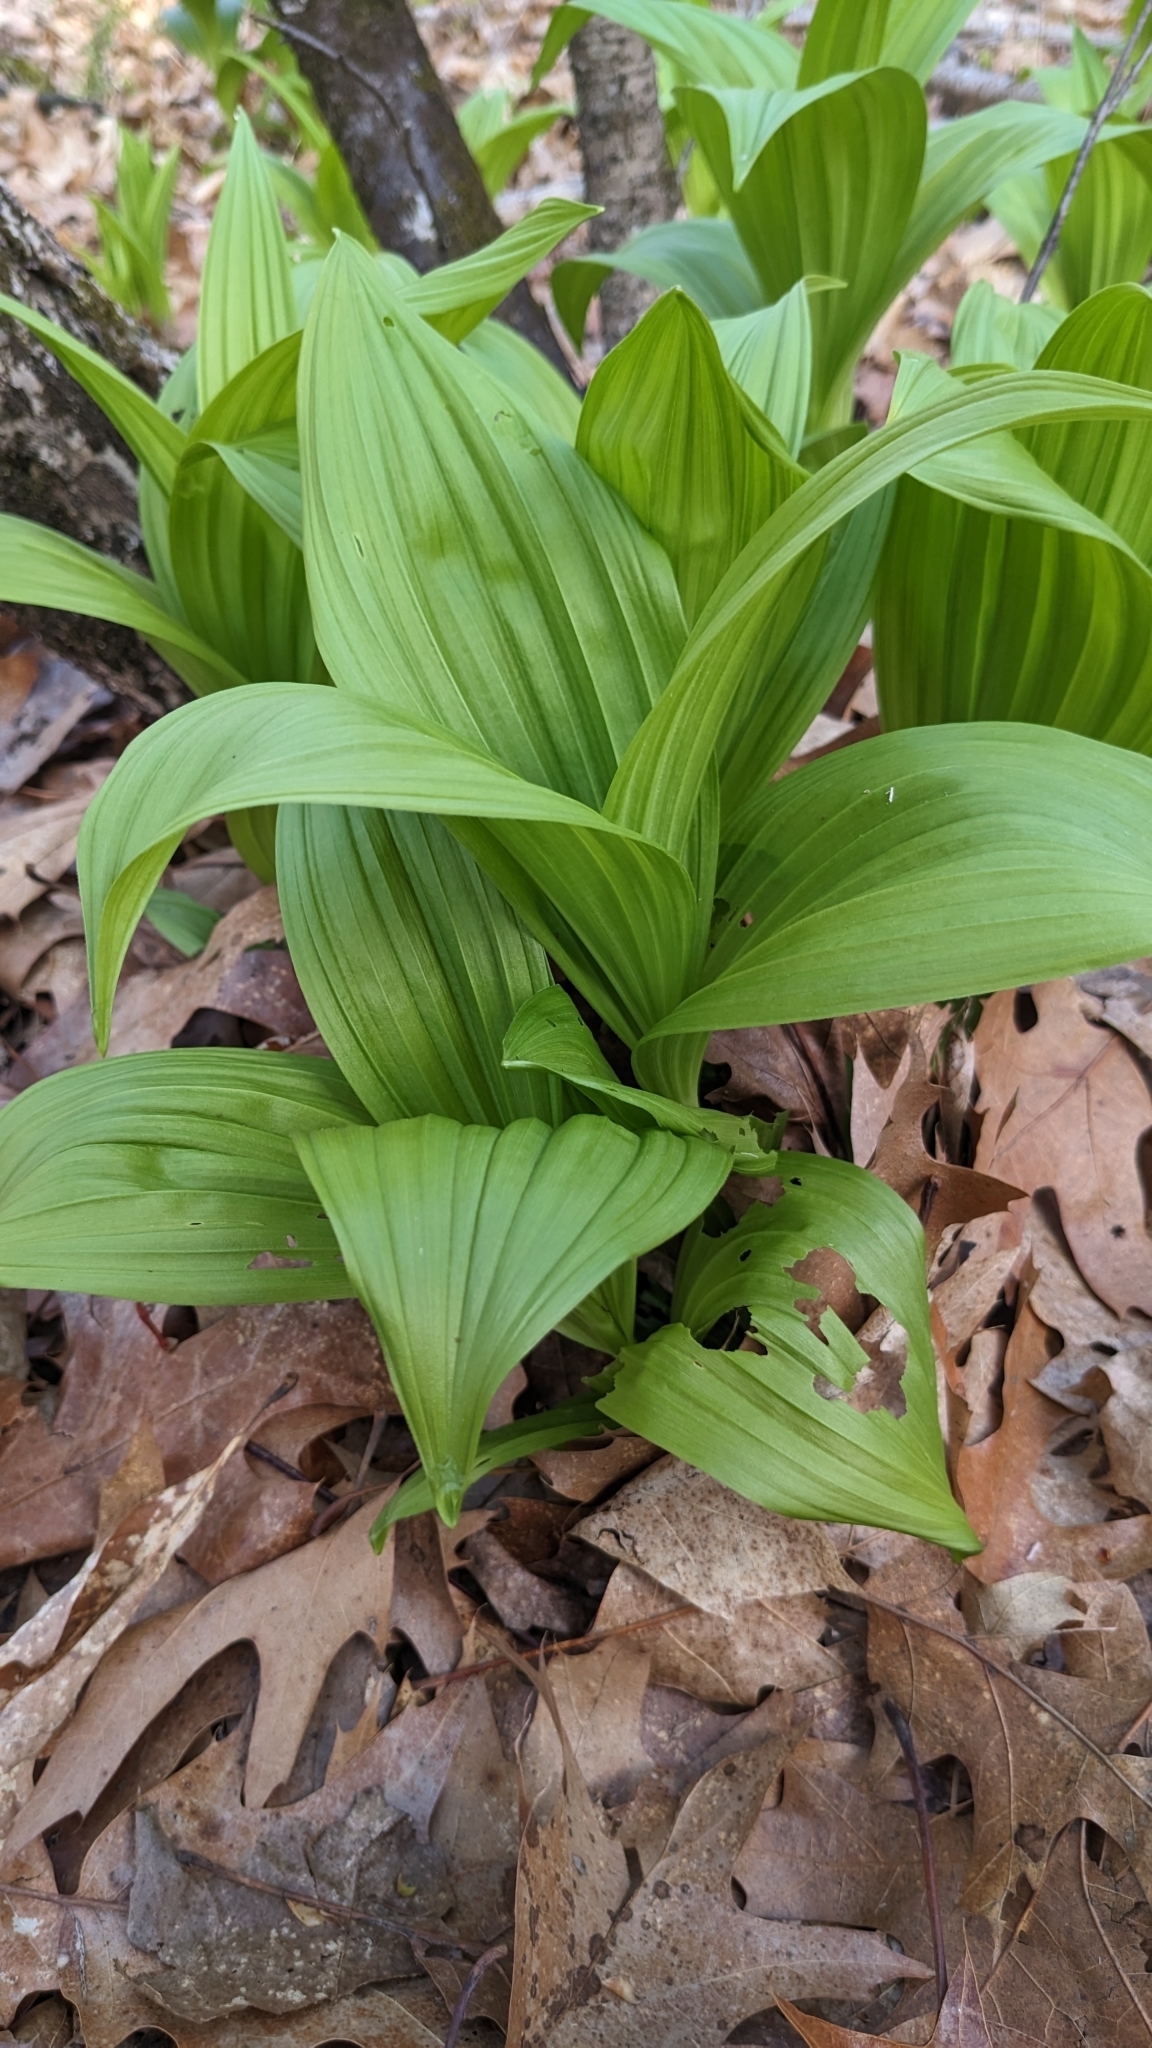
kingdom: Plantae
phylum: Tracheophyta
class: Liliopsida
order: Liliales
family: Melanthiaceae
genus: Veratrum
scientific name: Veratrum viride
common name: American false hellebore
